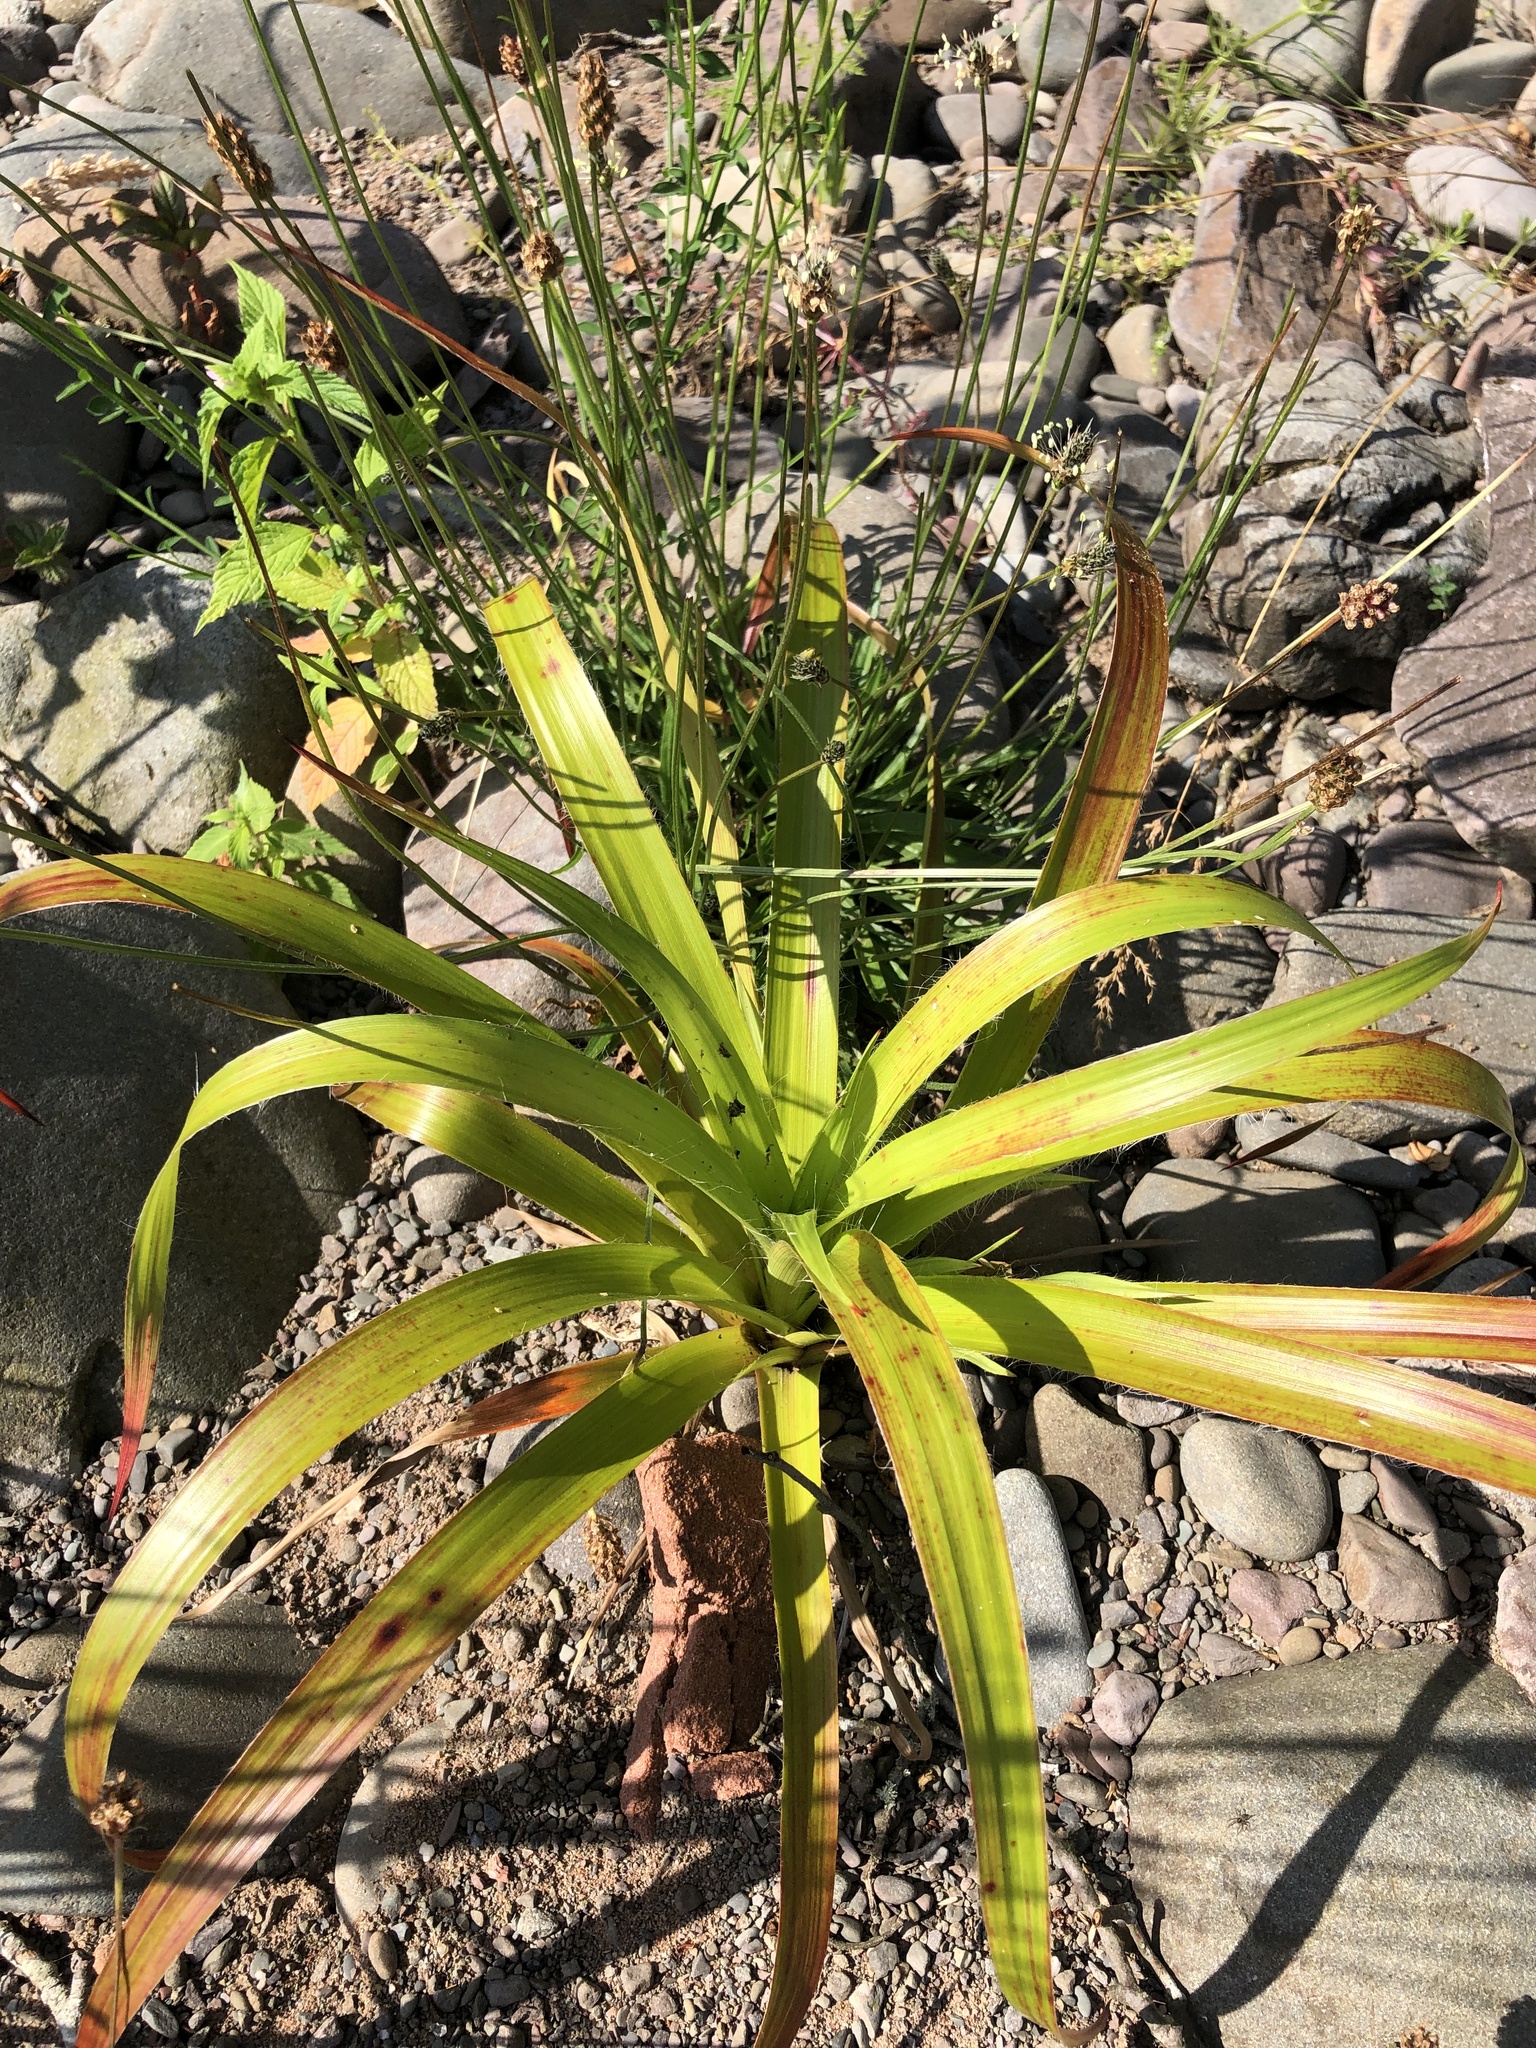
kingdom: Plantae
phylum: Tracheophyta
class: Liliopsida
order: Poales
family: Juncaceae
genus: Luzula
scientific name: Luzula sylvatica
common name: Great wood-rush
